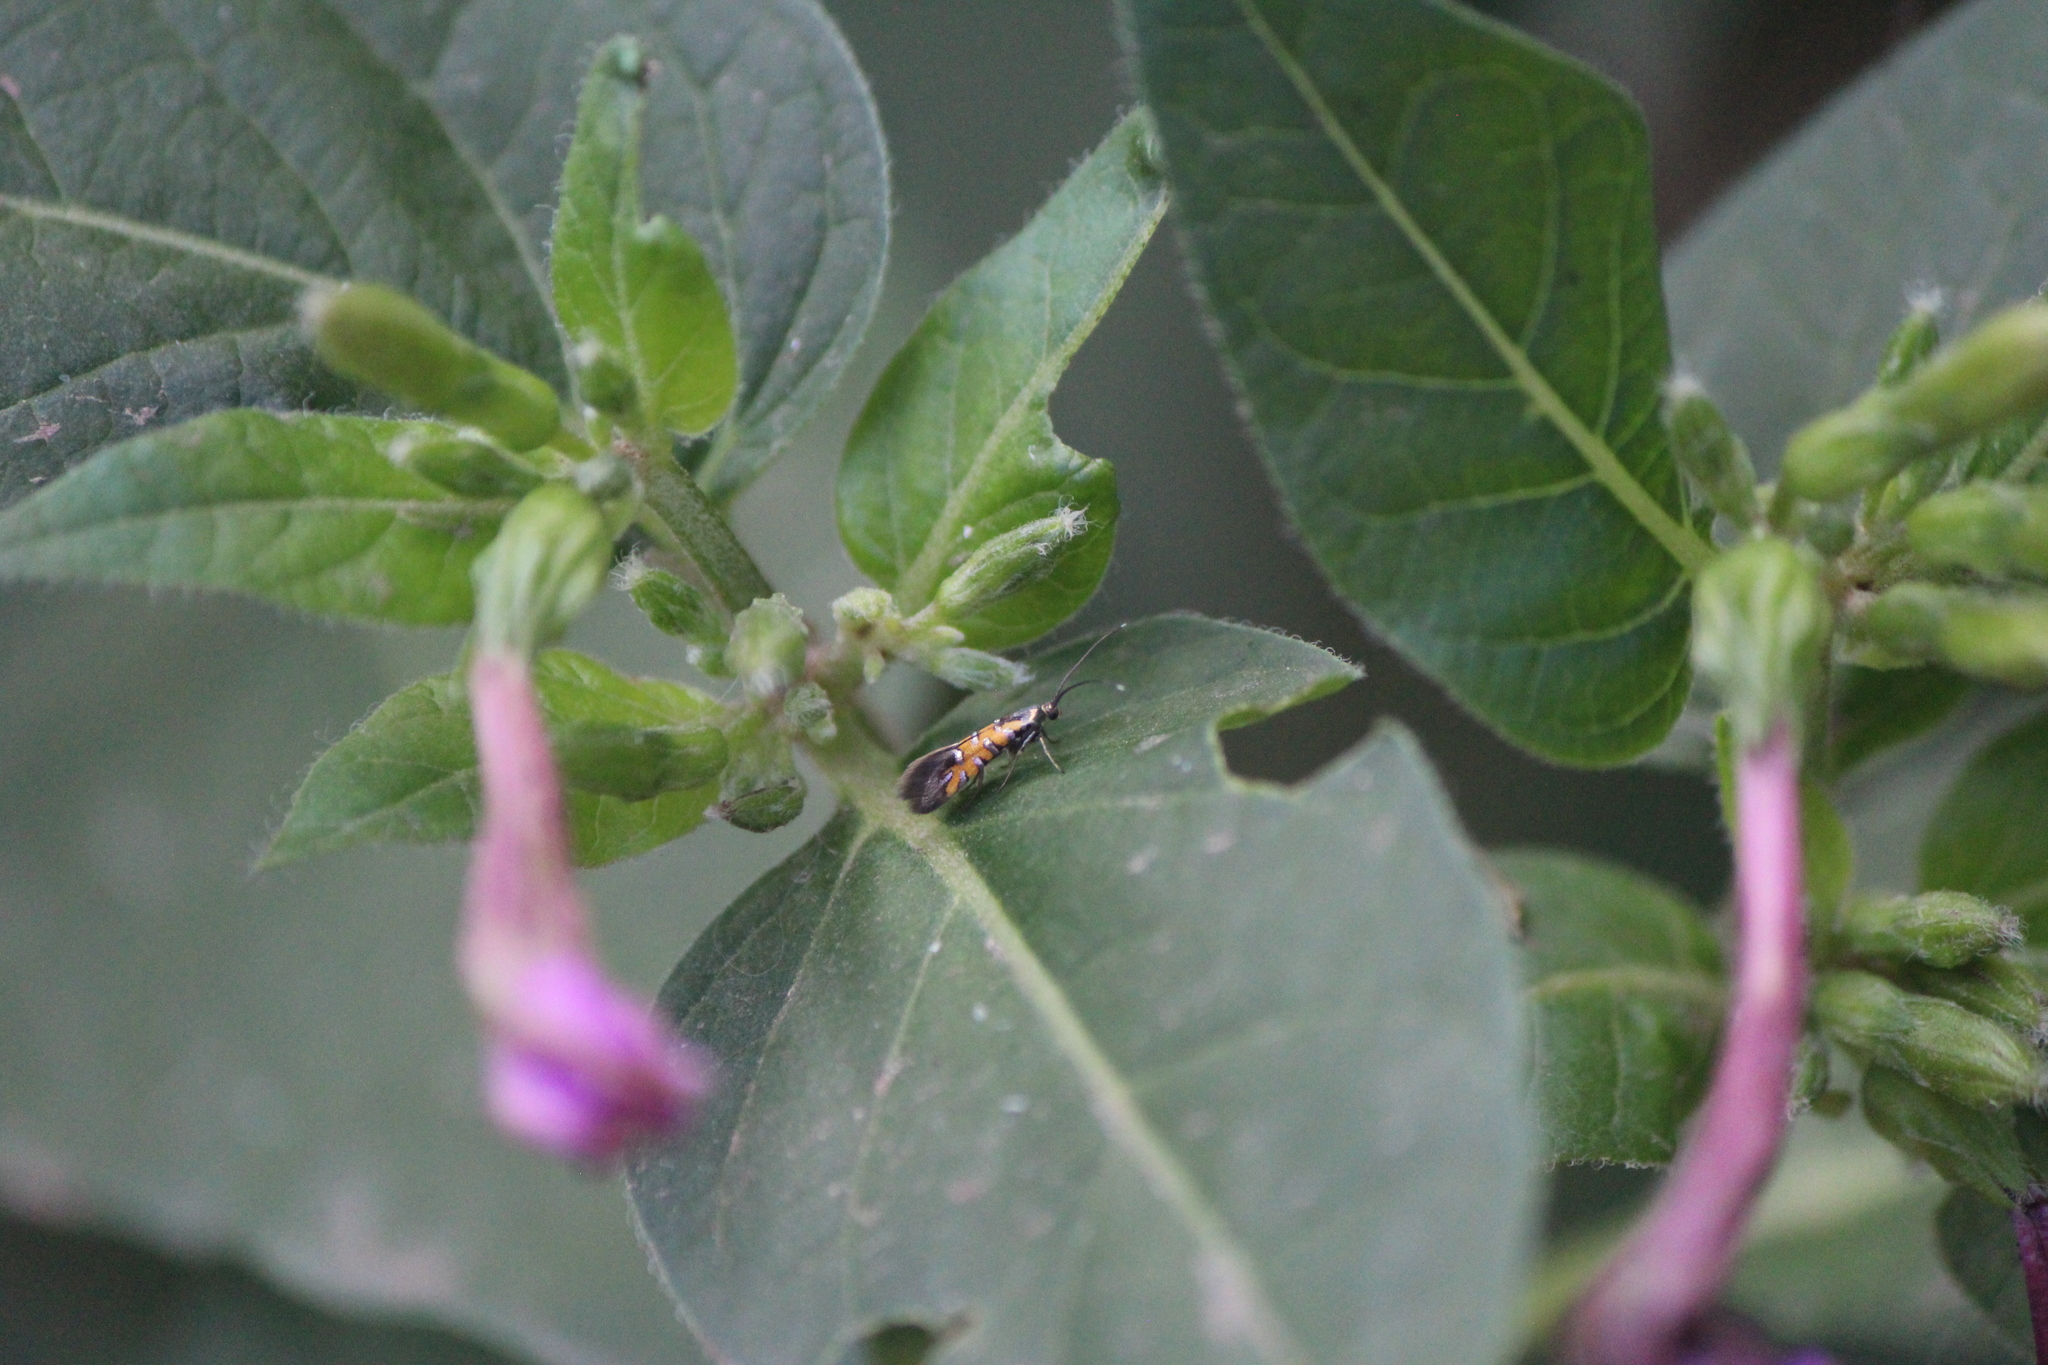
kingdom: Animalia
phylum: Arthropoda
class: Insecta
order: Lepidoptera
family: Heliodinidae
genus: Neoheliodines
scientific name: Neoheliodines
